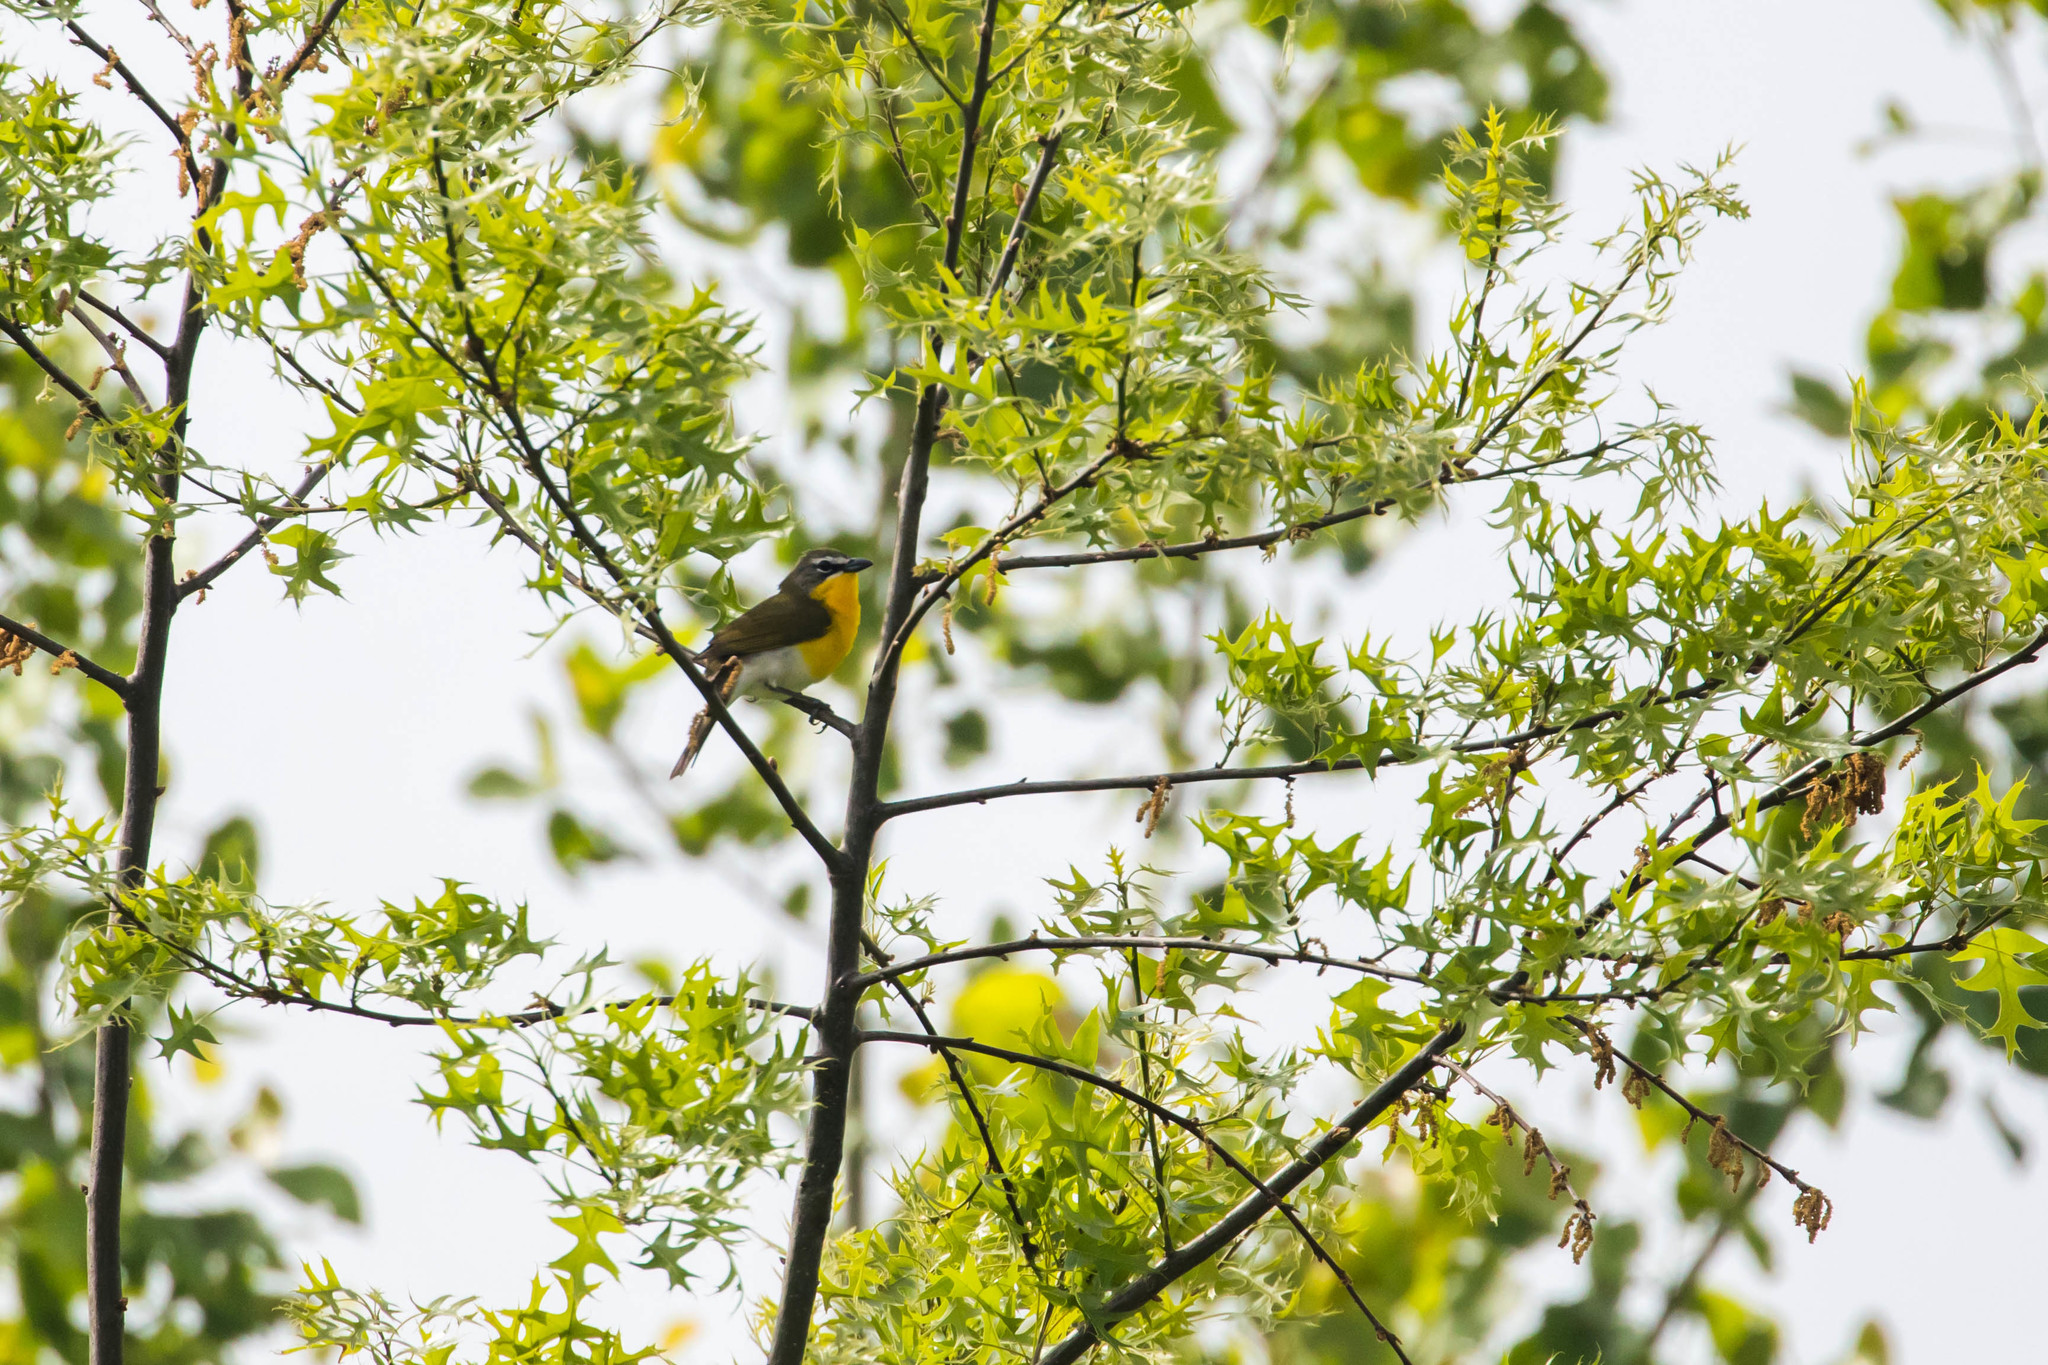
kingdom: Animalia
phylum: Chordata
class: Aves
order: Passeriformes
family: Parulidae
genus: Icteria
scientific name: Icteria virens
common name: Yellow-breasted chat
